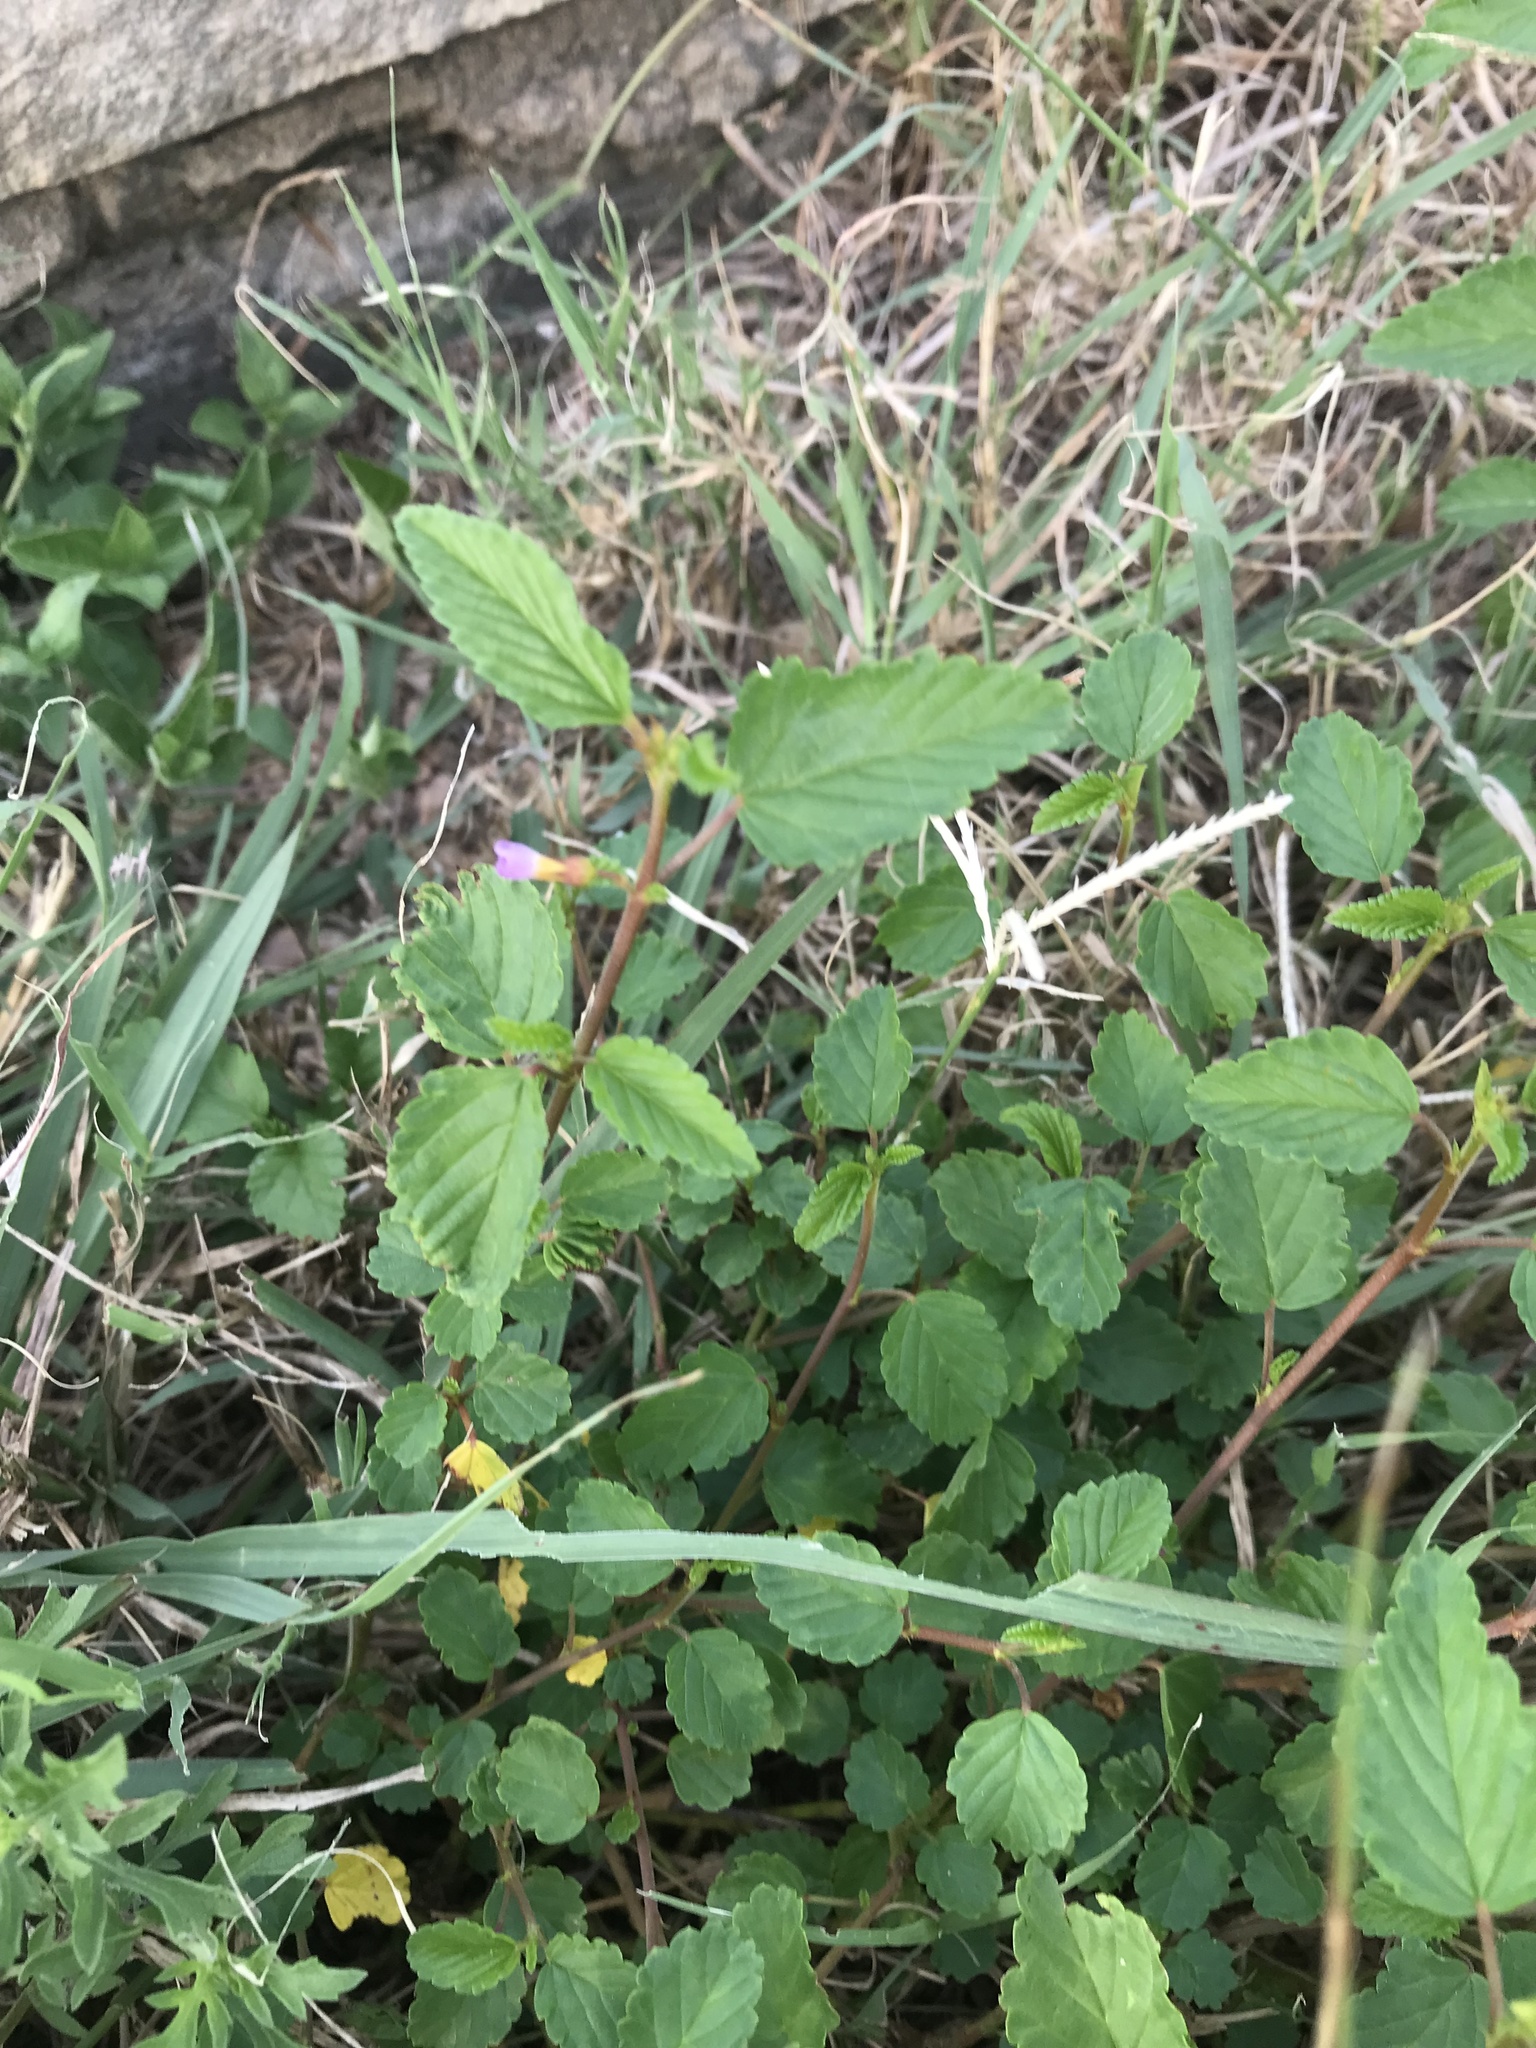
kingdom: Plantae
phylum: Tracheophyta
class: Magnoliopsida
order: Malvales
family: Malvaceae
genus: Melochia
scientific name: Melochia pyramidata
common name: Pyramidflower
